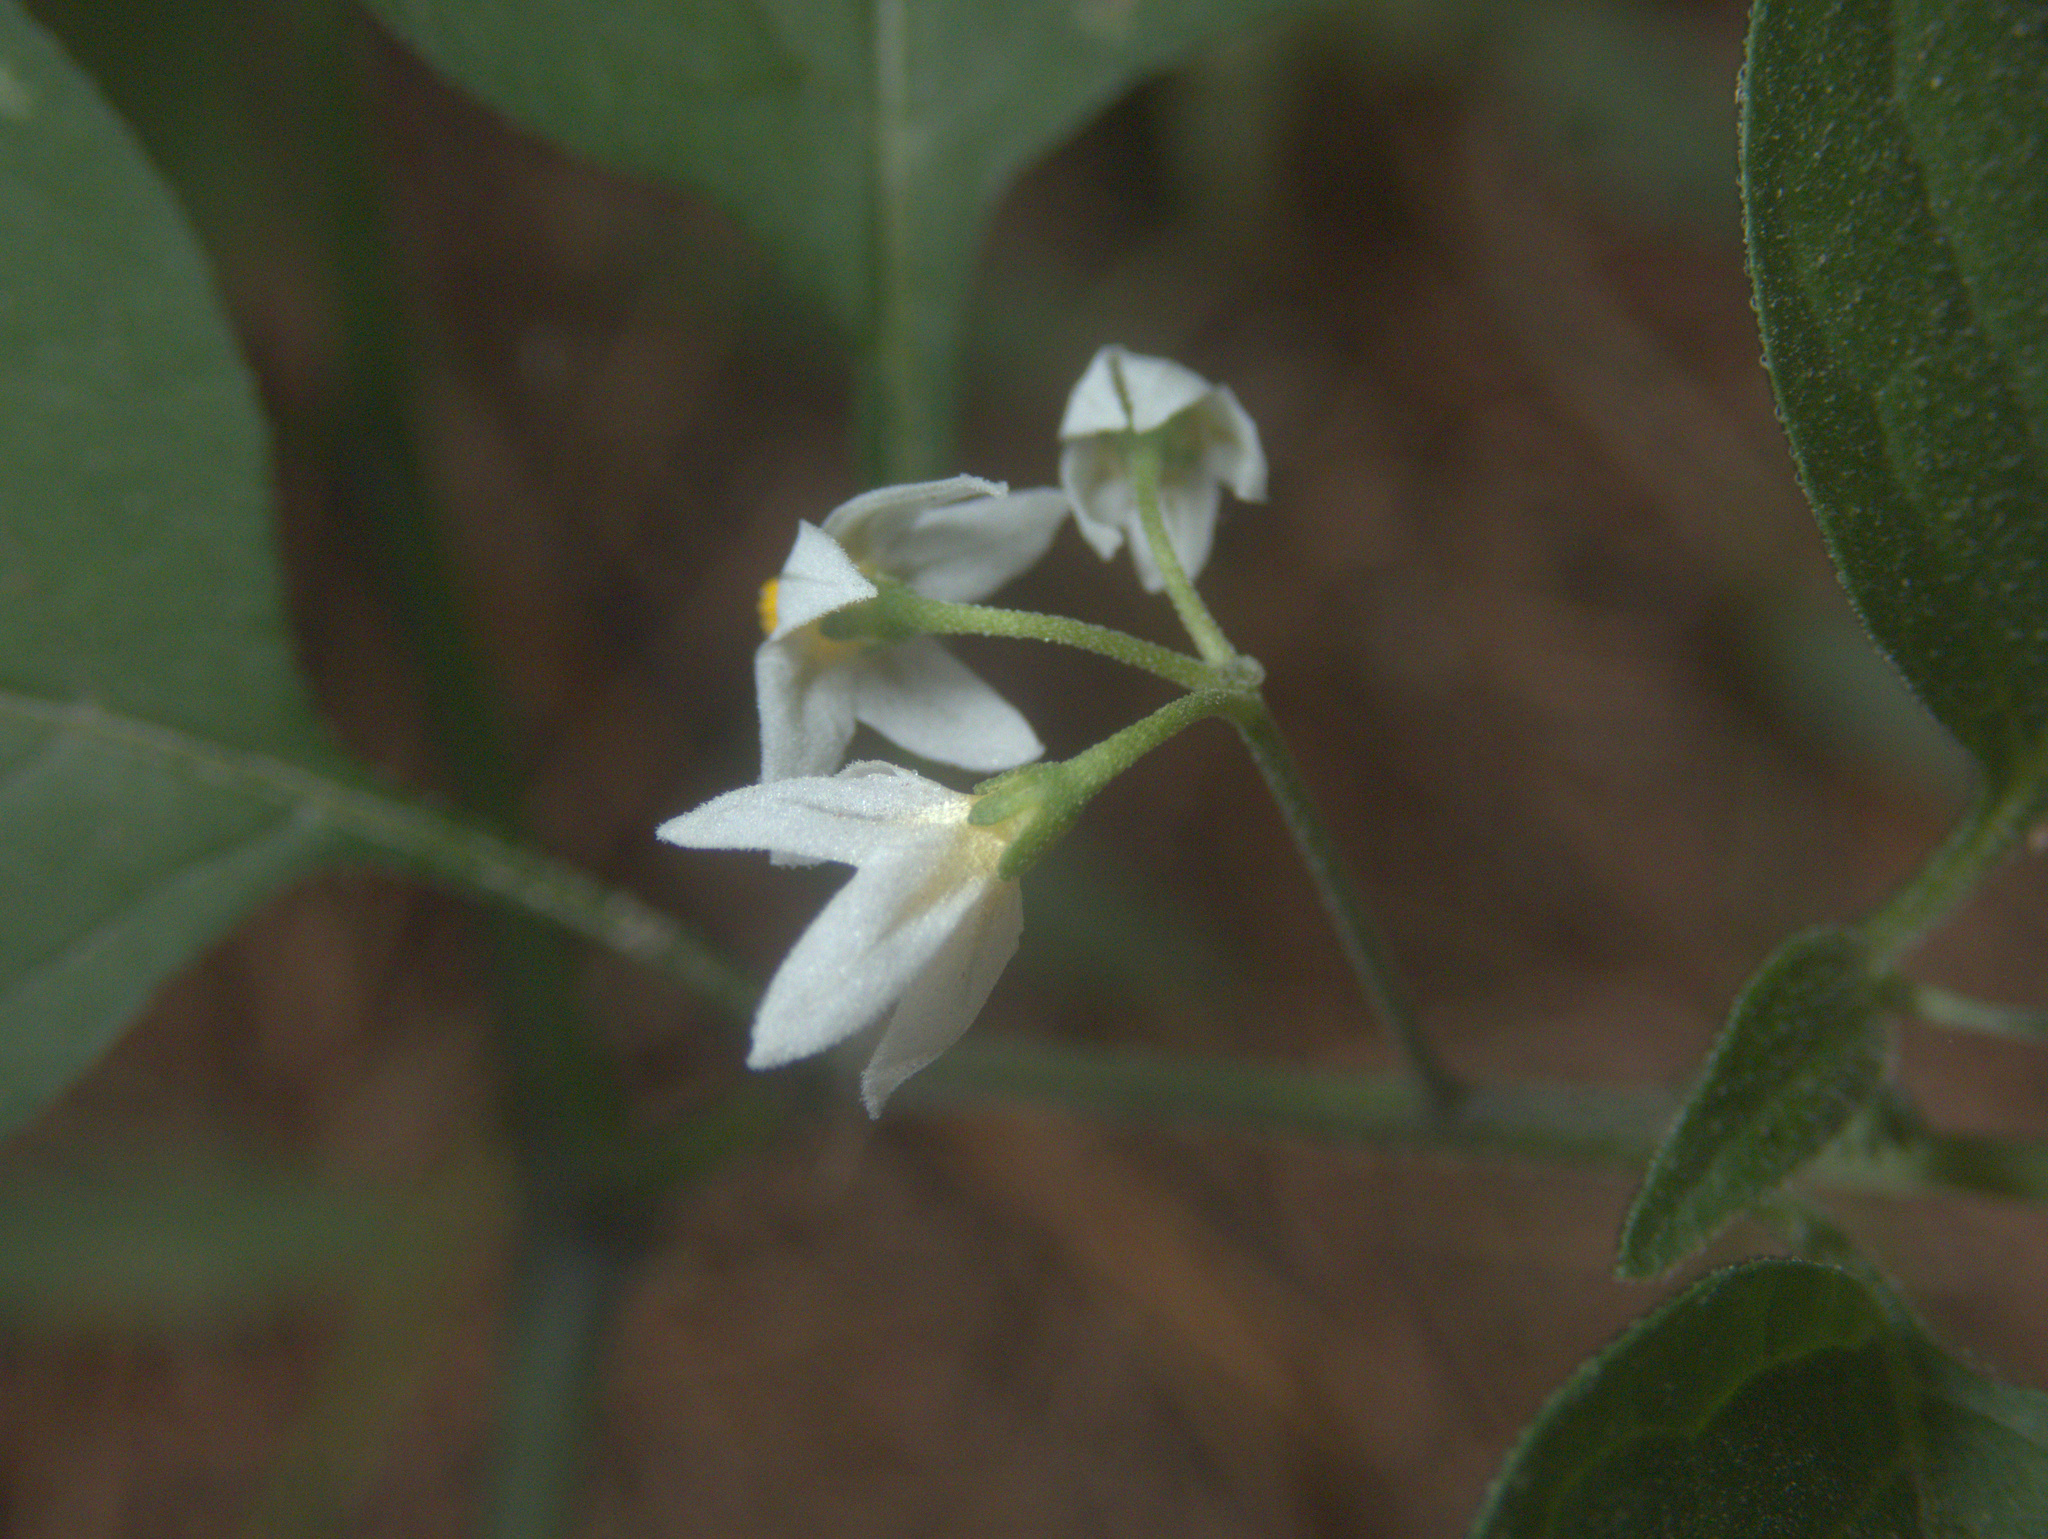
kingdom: Plantae
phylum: Tracheophyta
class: Magnoliopsida
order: Solanales
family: Solanaceae
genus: Solanum
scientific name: Solanum americanum
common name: American black nightshade
